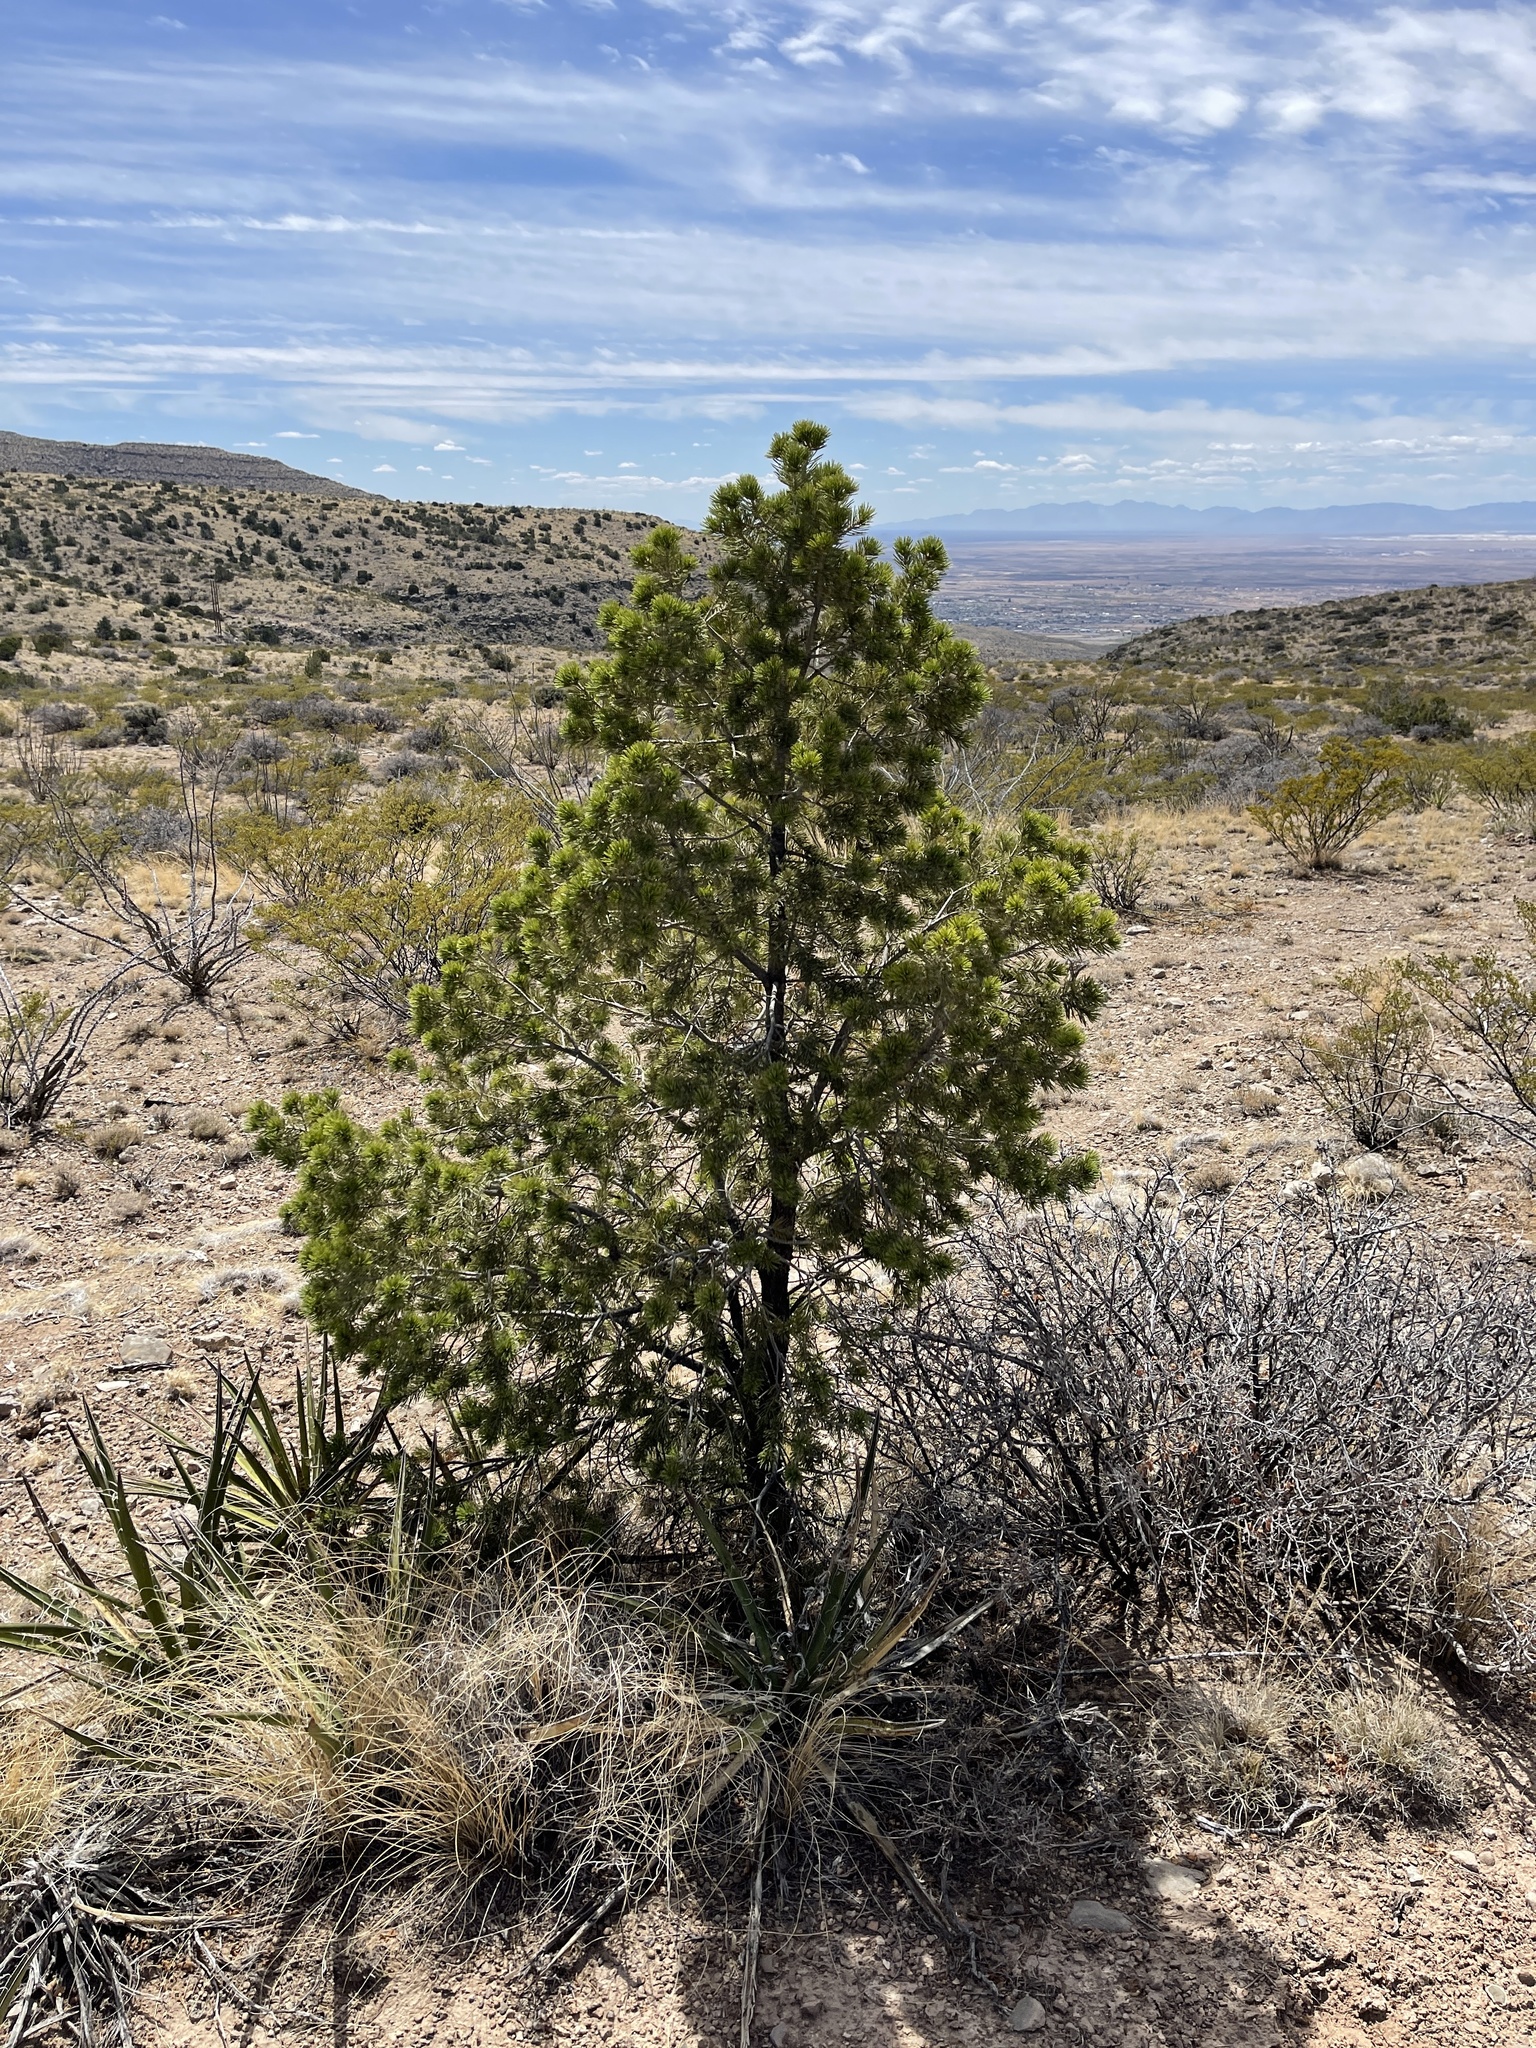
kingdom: Plantae
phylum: Tracheophyta
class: Pinopsida
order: Pinales
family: Pinaceae
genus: Pinus
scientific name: Pinus edulis
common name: Colorado pinyon
